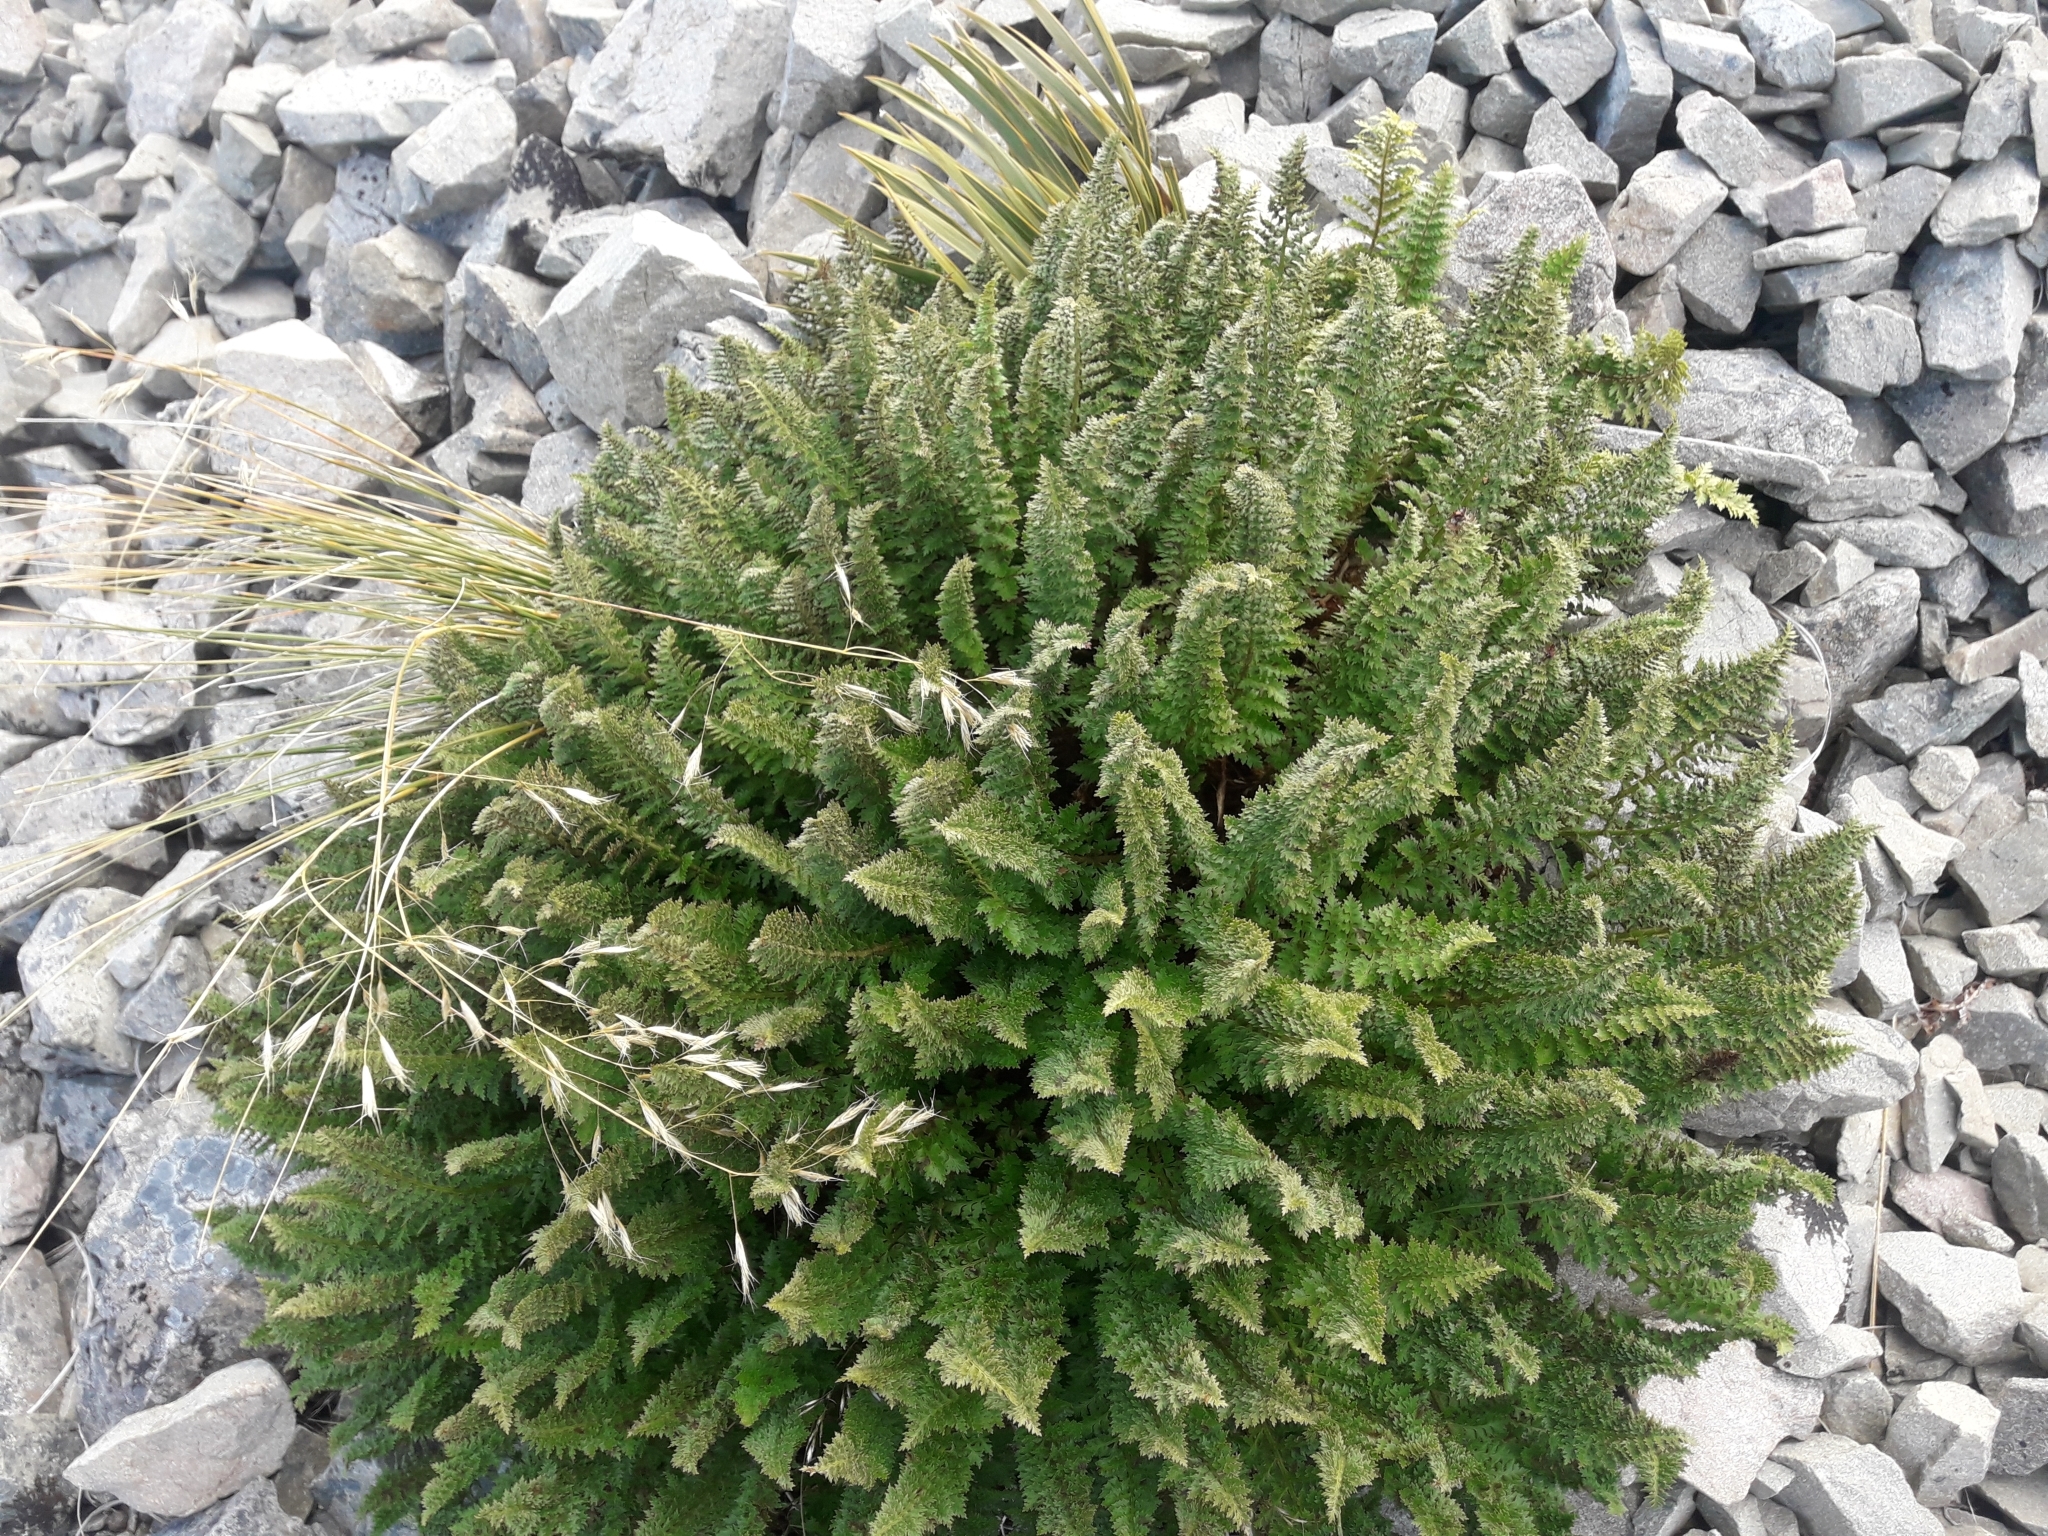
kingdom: Plantae
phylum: Tracheophyta
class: Polypodiopsida
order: Polypodiales
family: Dryopteridaceae
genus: Polystichum
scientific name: Polystichum cystostegia
